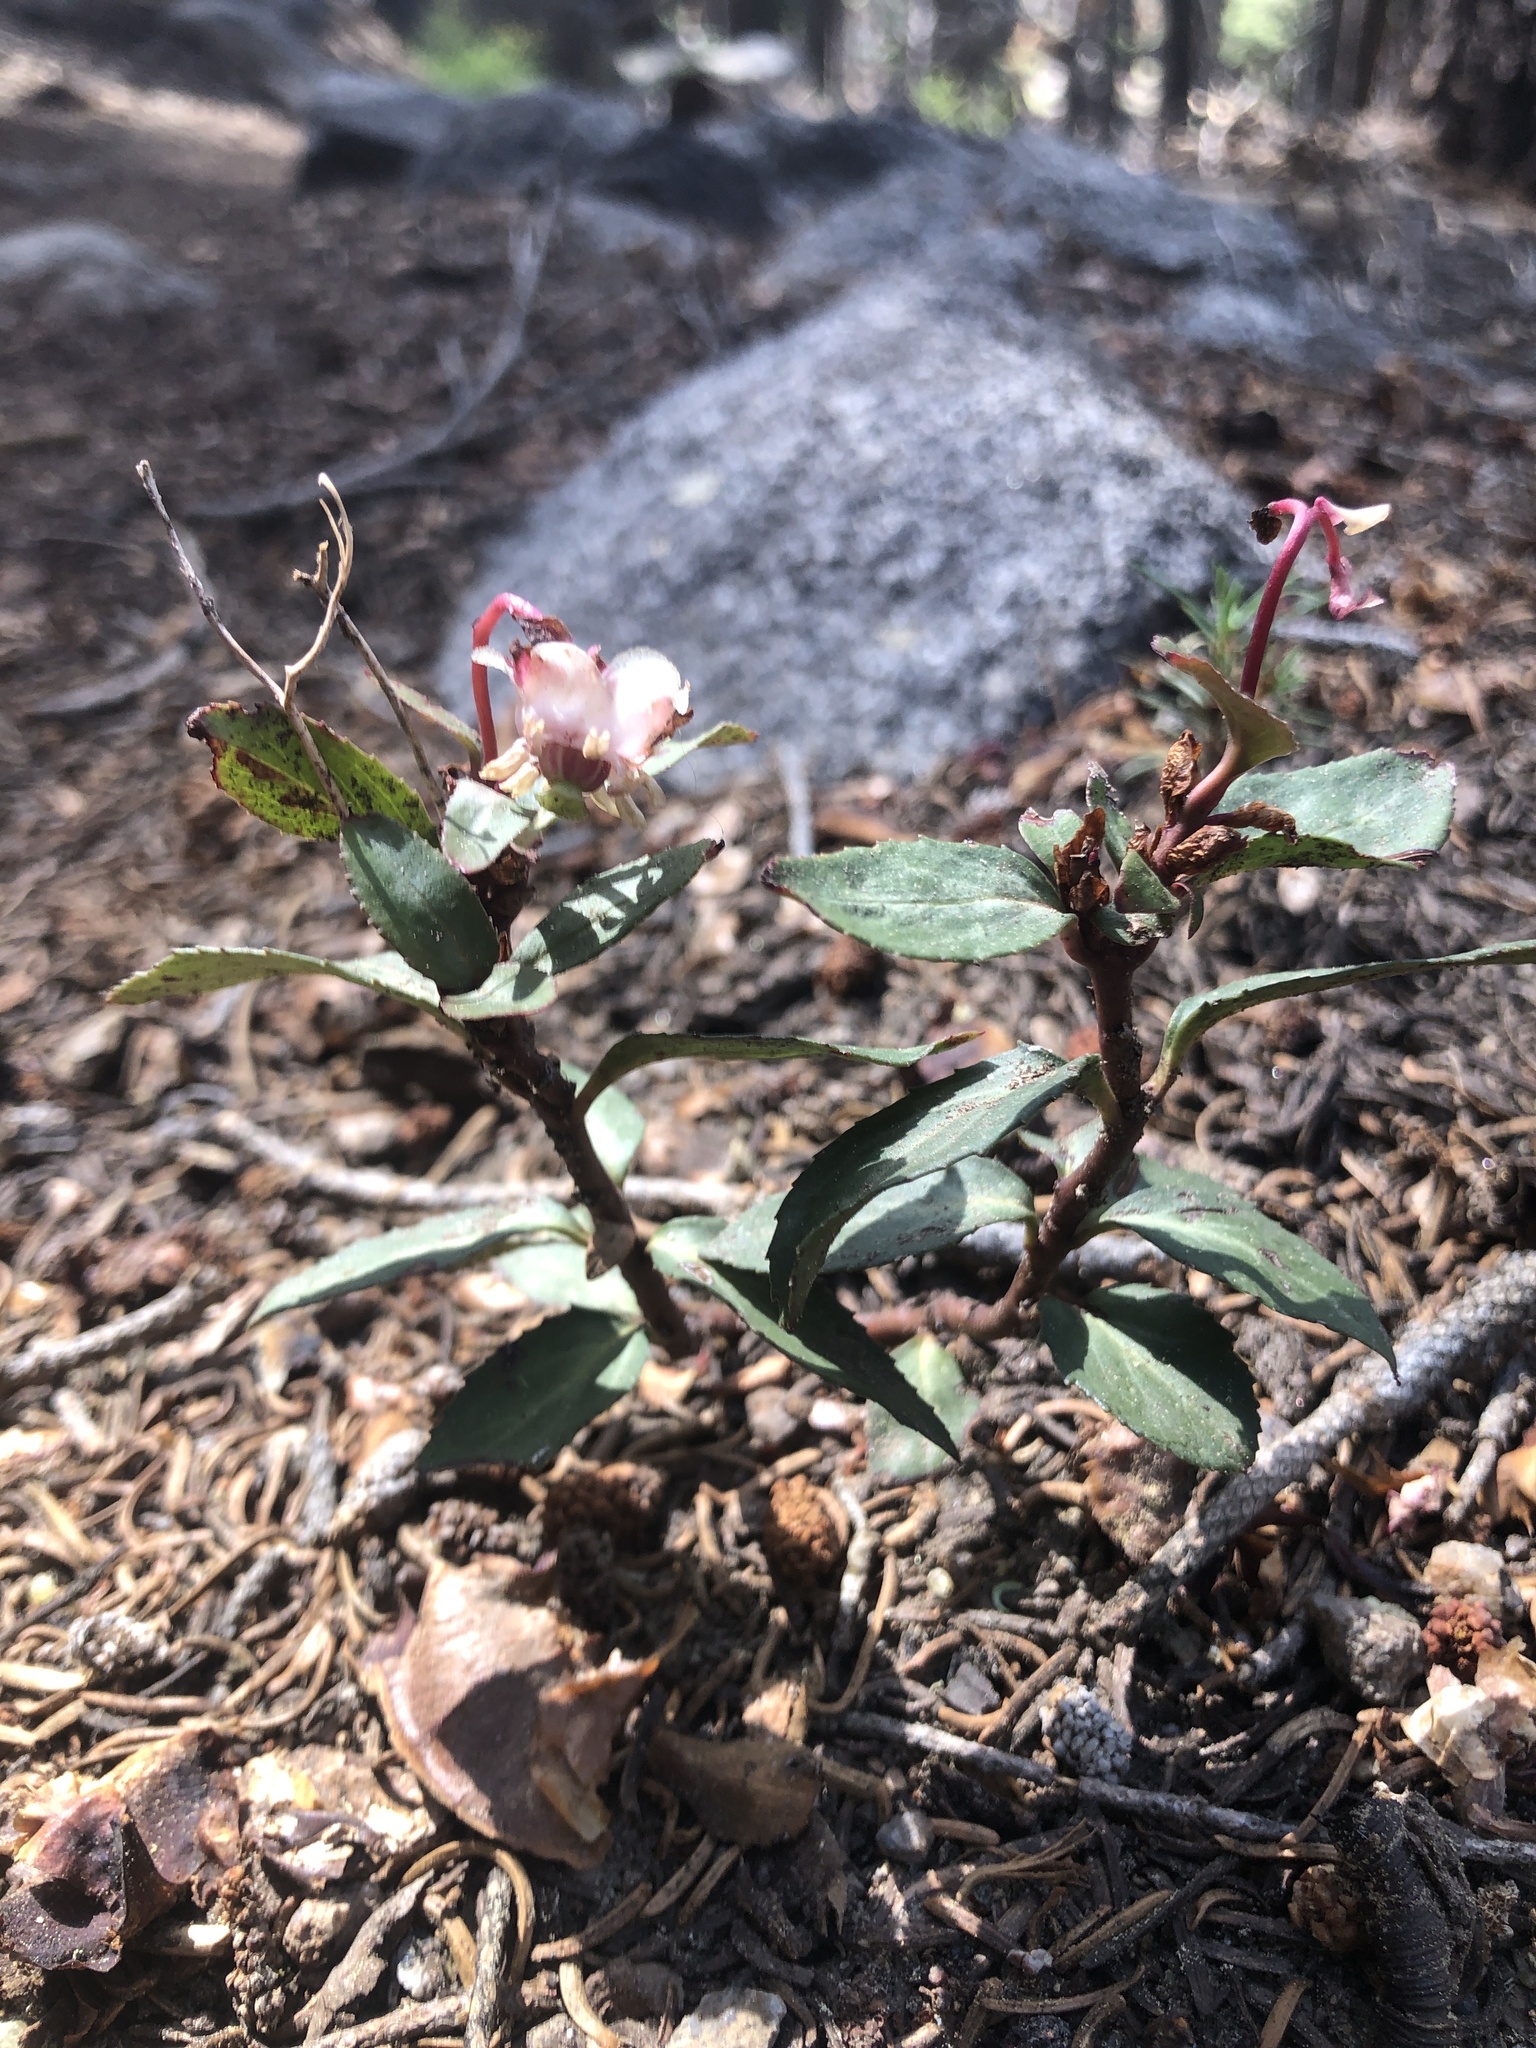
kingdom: Plantae
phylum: Tracheophyta
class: Magnoliopsida
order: Ericales
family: Ericaceae
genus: Chimaphila
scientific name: Chimaphila menziesii
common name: Menzies' pipsissewa
